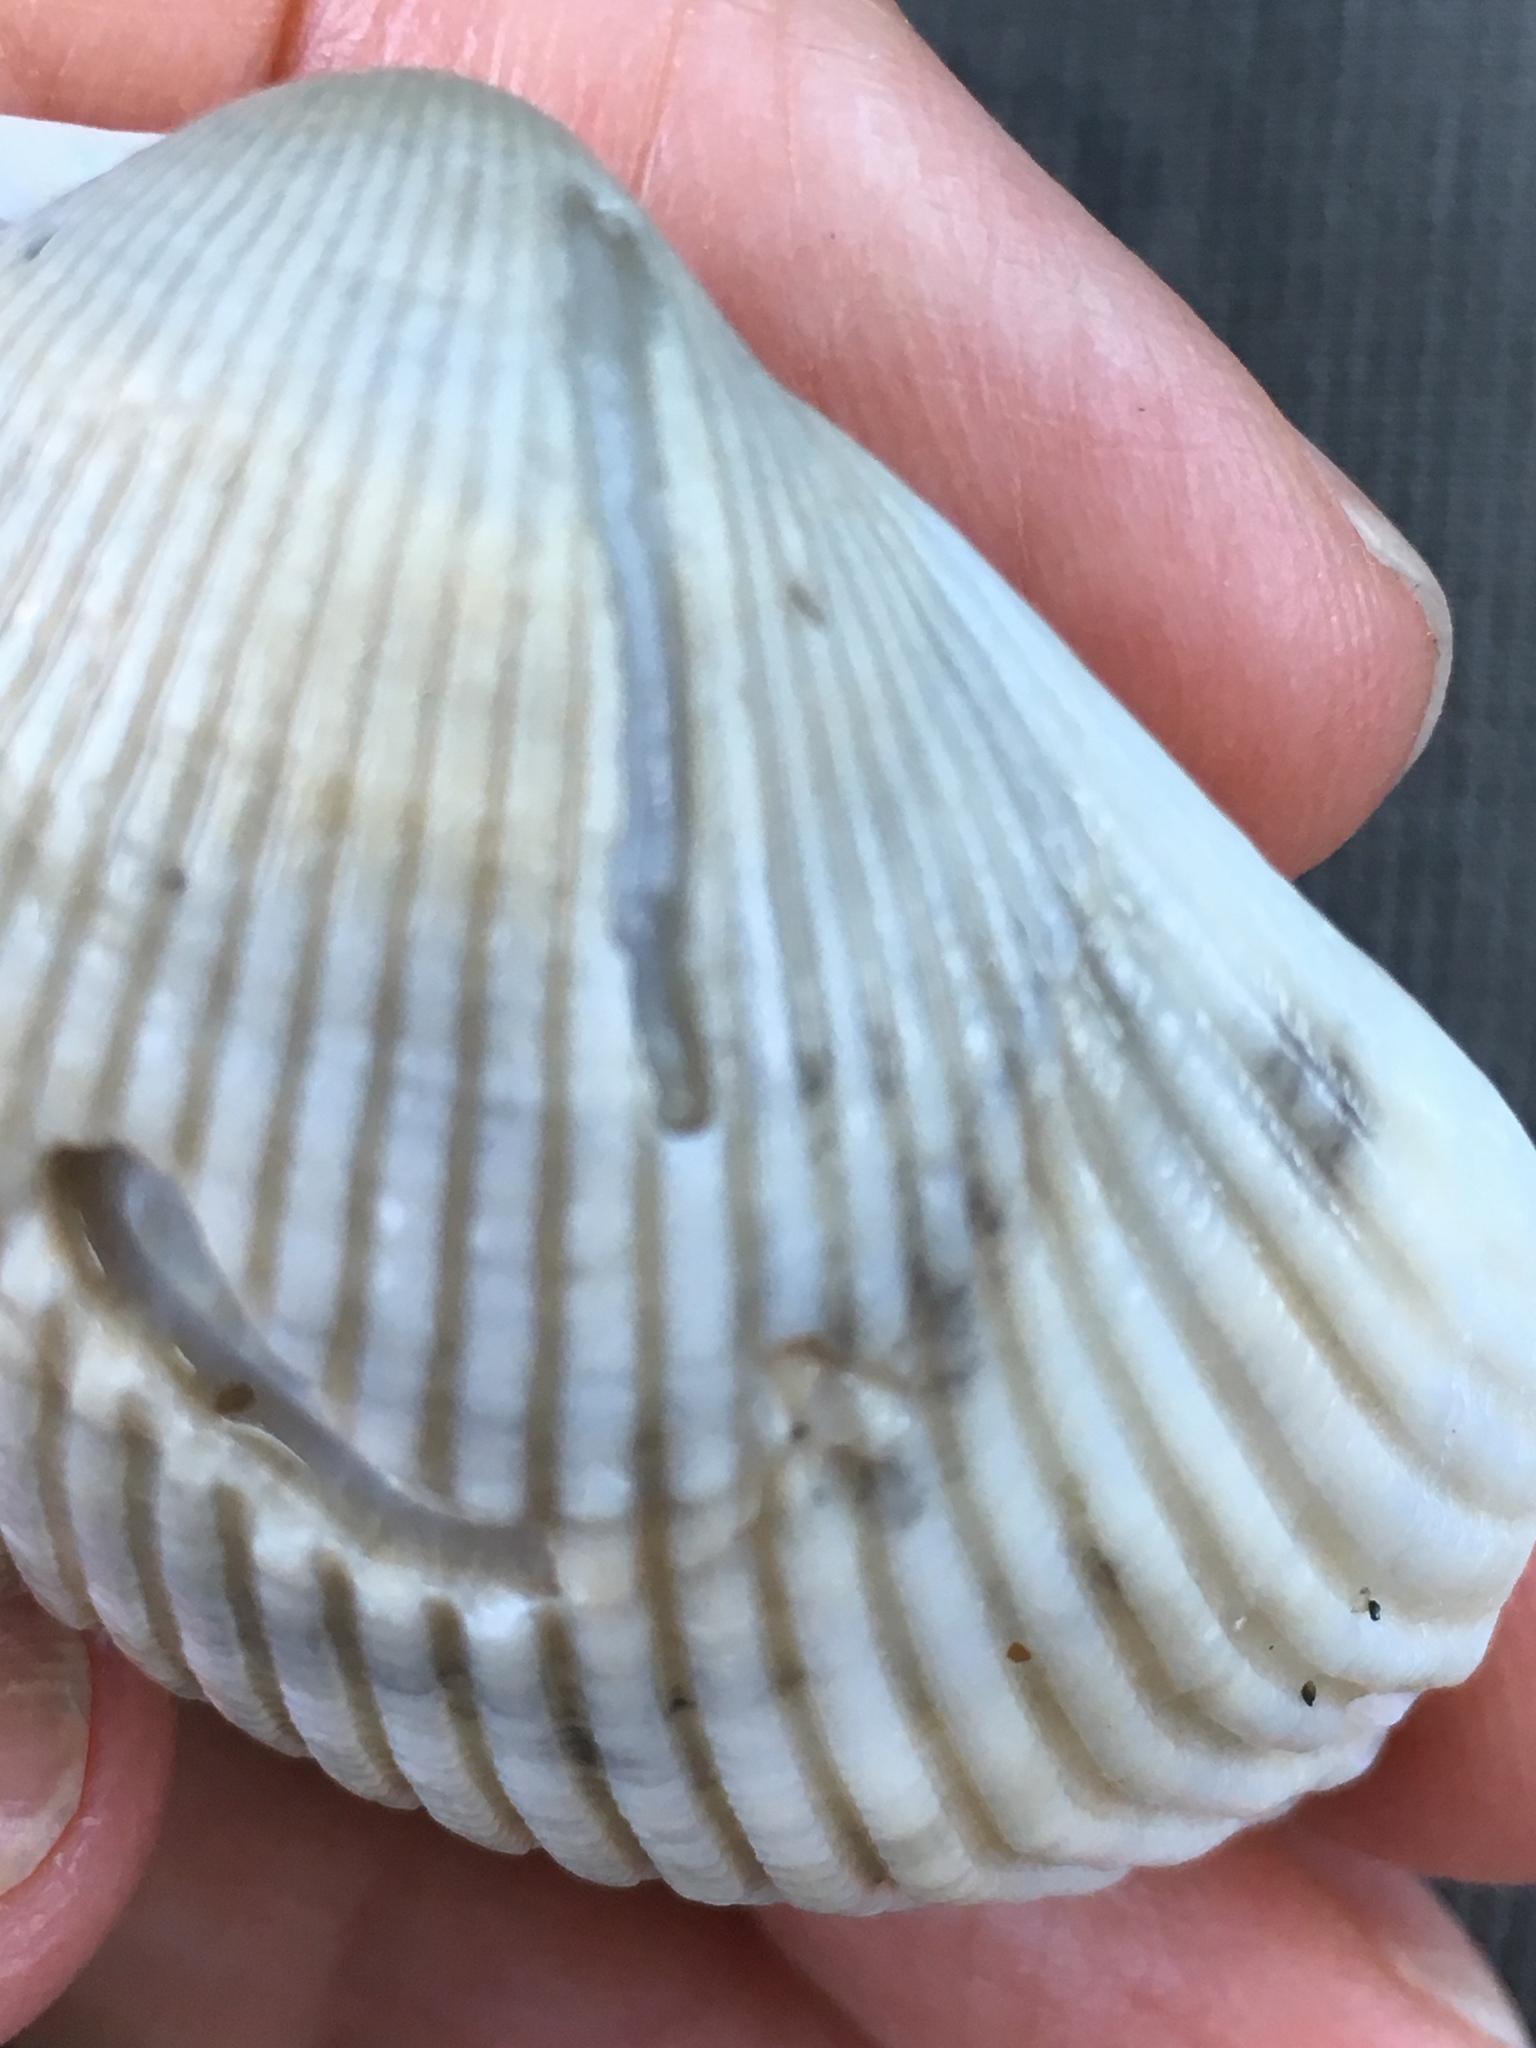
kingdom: Animalia
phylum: Mollusca
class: Bivalvia
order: Arcida
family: Arcidae
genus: Lunarca
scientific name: Lunarca ovalis
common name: Blood ark
